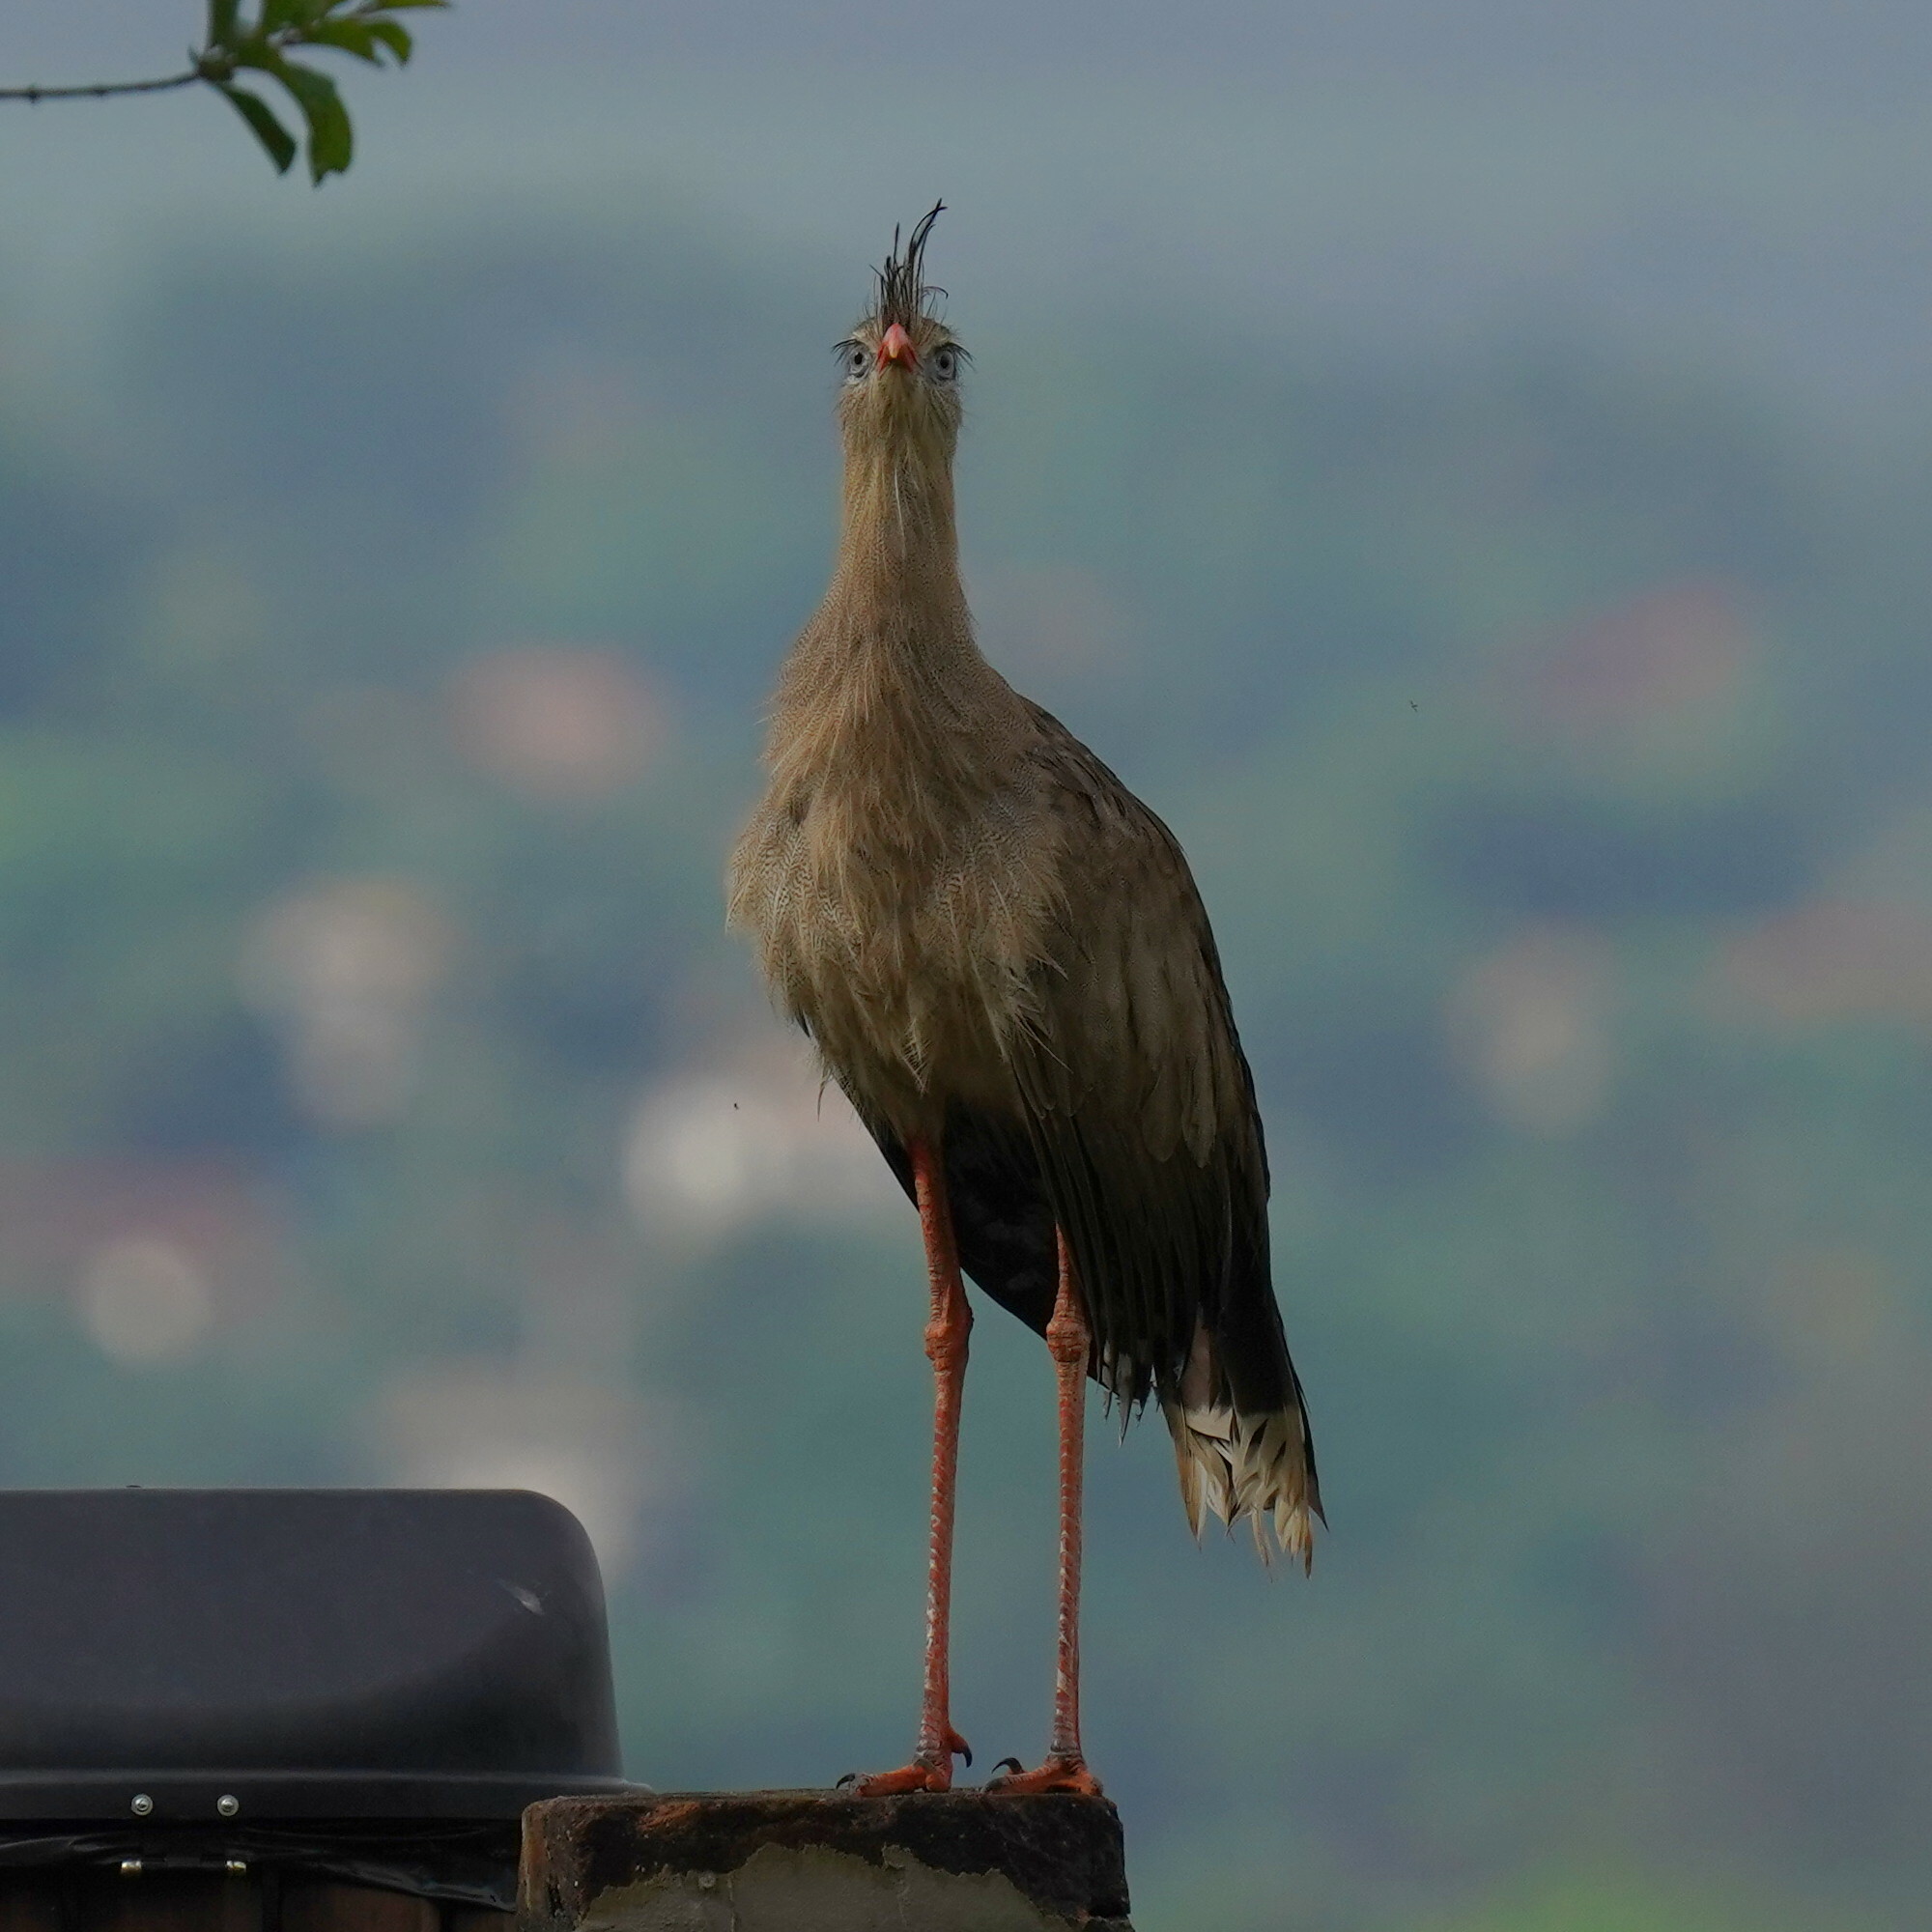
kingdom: Animalia
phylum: Chordata
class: Aves
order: Cariamiformes
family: Cariamidae
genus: Cariama
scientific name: Cariama cristata
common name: Red-legged seriema
